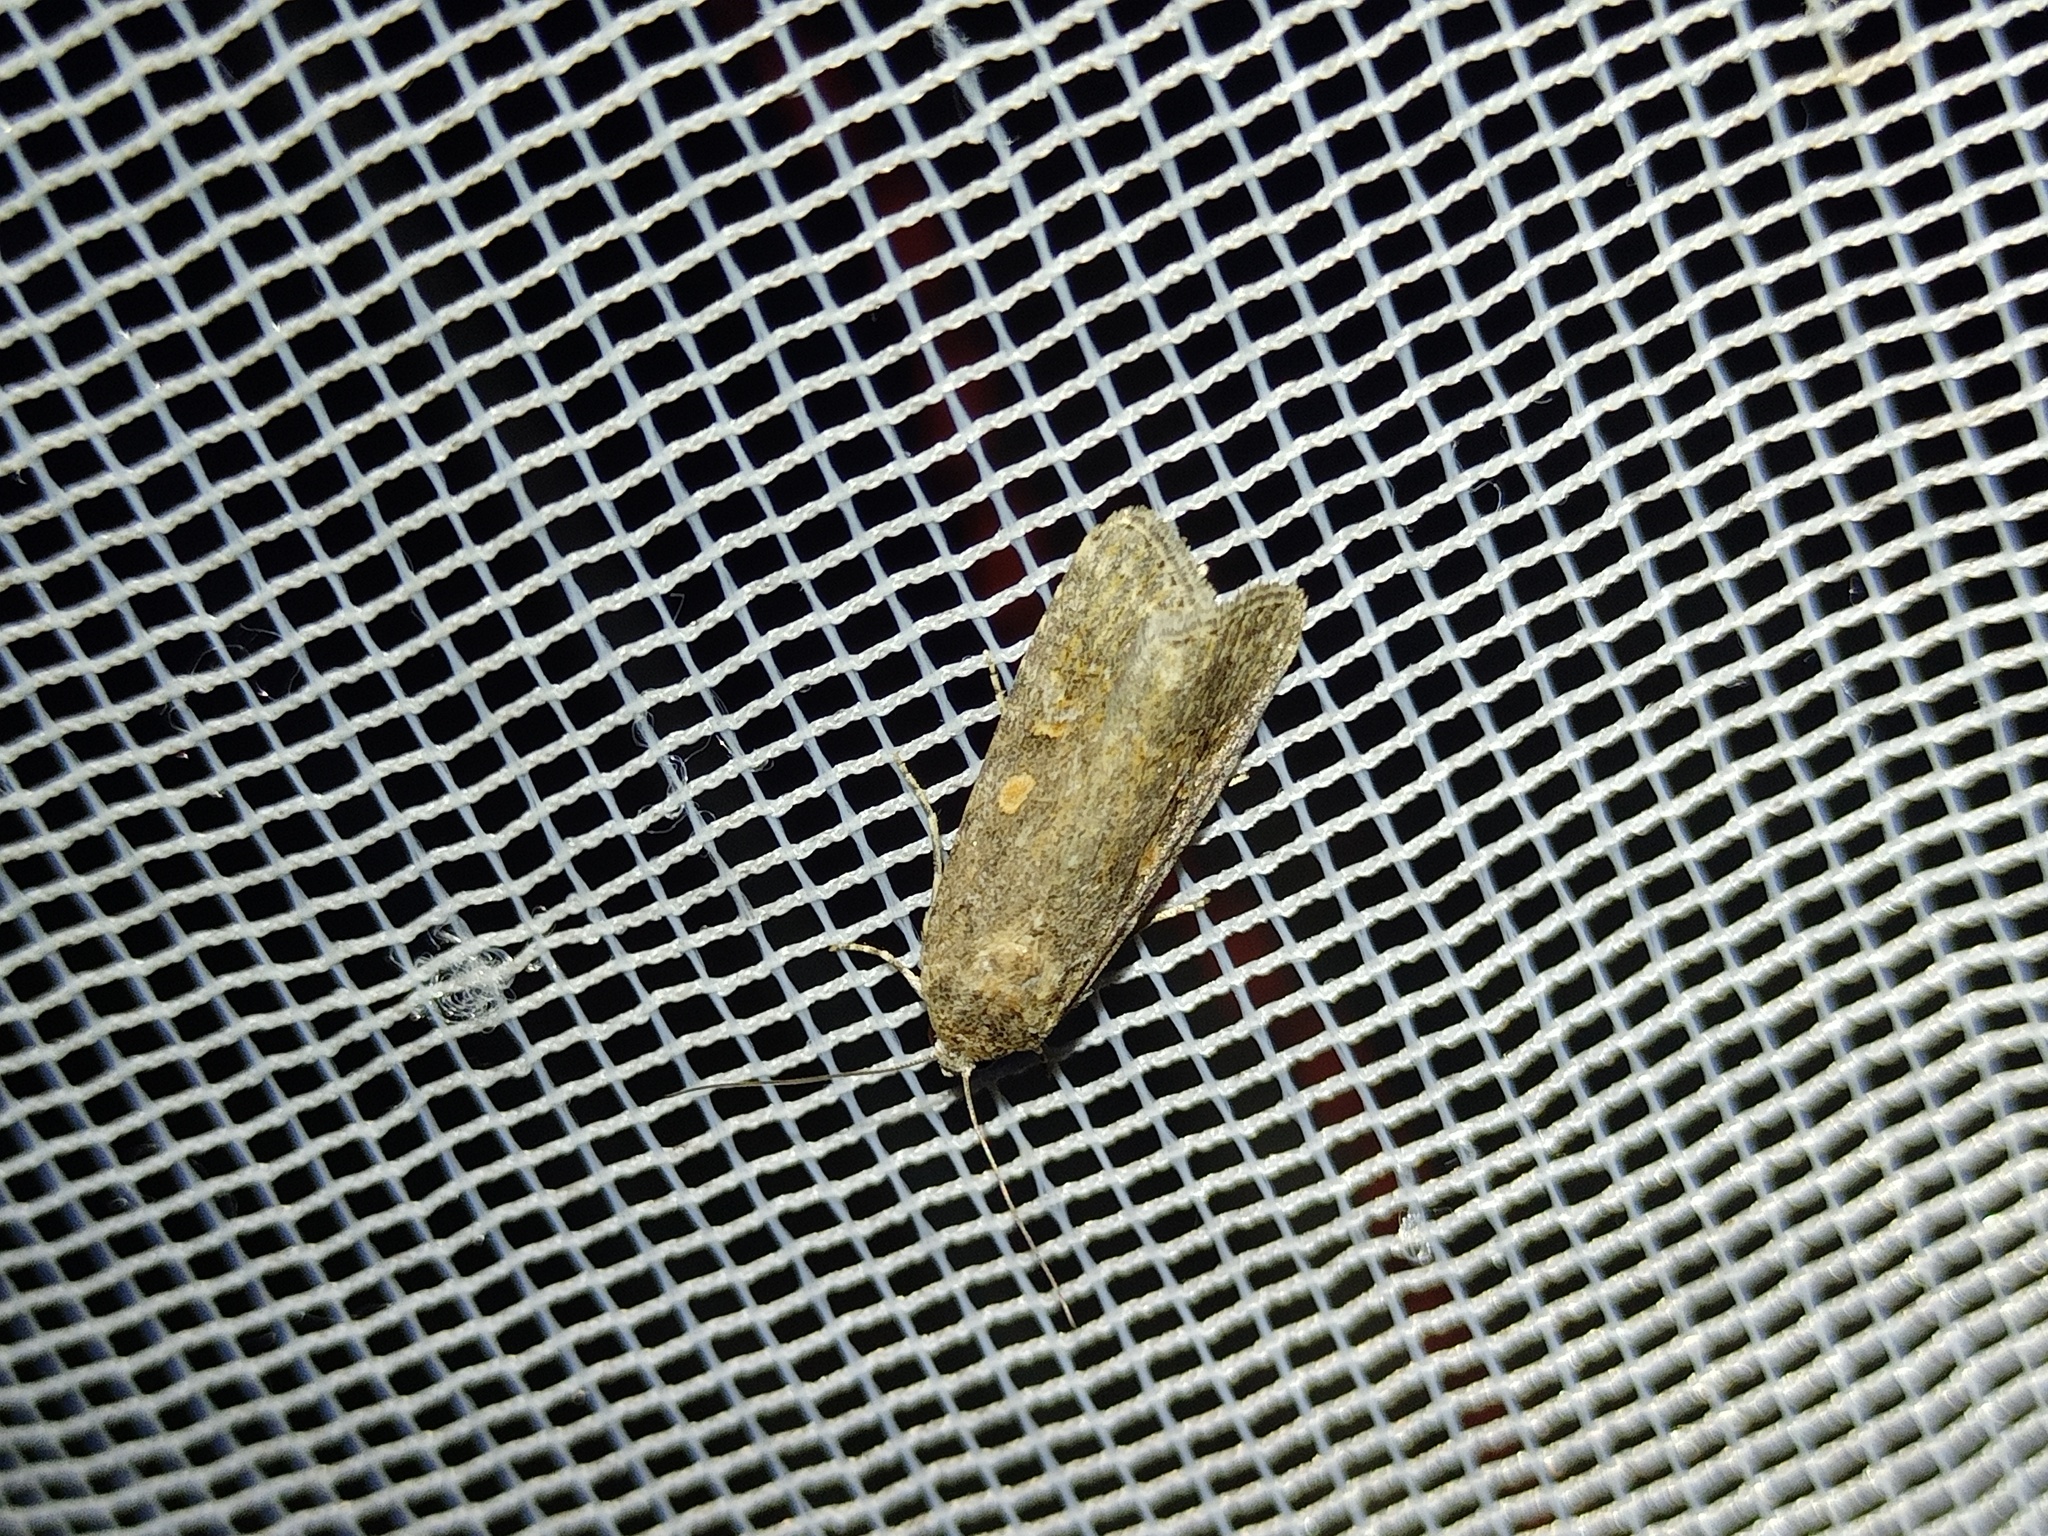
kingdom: Animalia
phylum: Arthropoda
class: Insecta
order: Lepidoptera
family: Noctuidae
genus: Spodoptera
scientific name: Spodoptera exigua
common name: Beet armyworm
